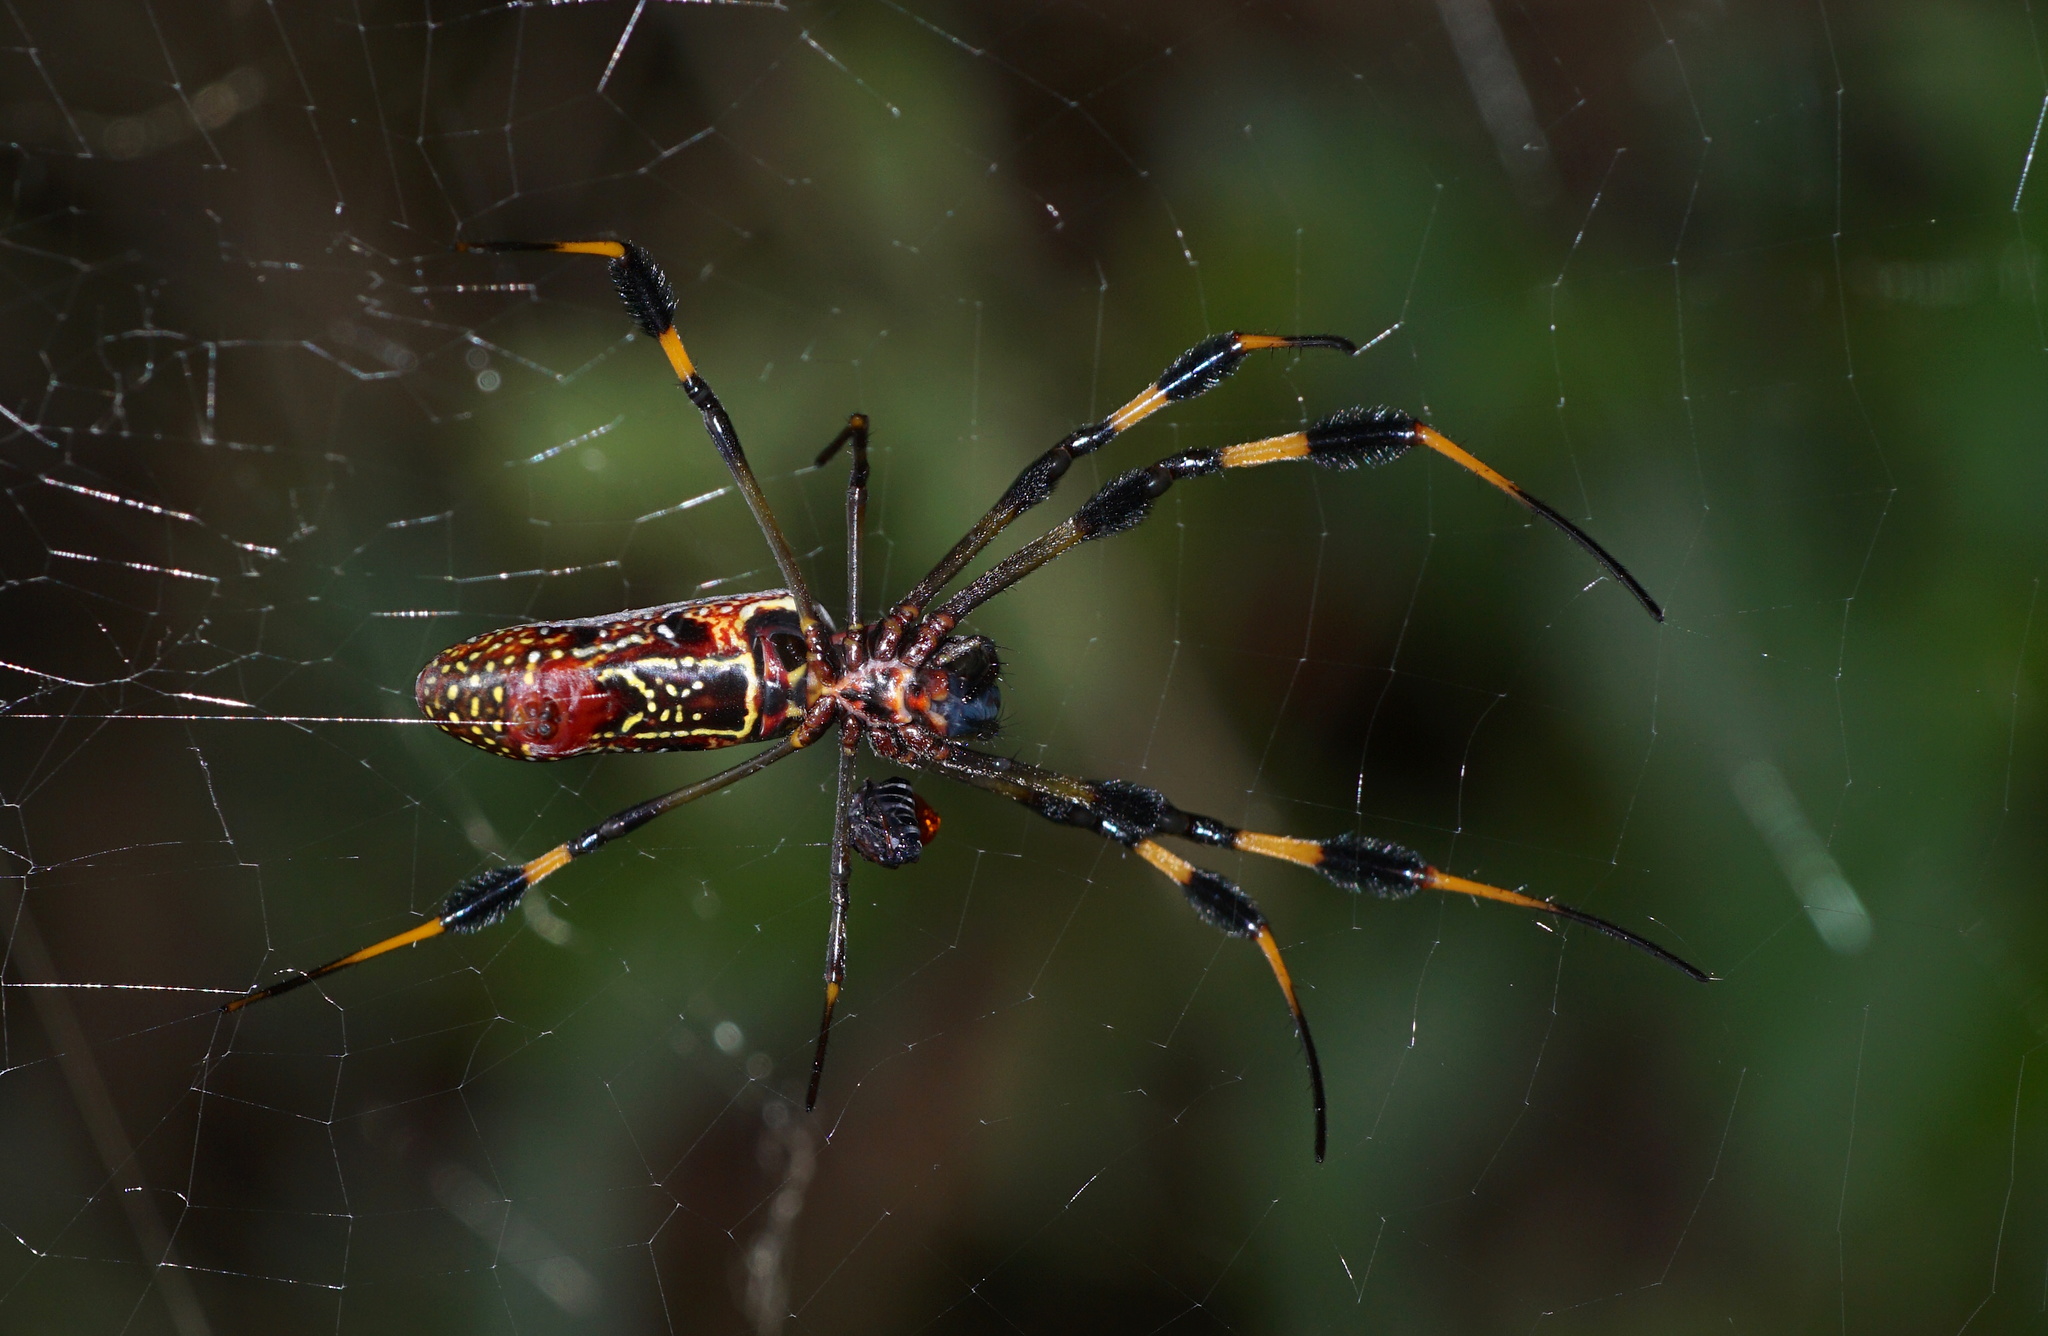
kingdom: Animalia
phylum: Arthropoda
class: Arachnida
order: Araneae
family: Araneidae
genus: Trichonephila
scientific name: Trichonephila clavipes
